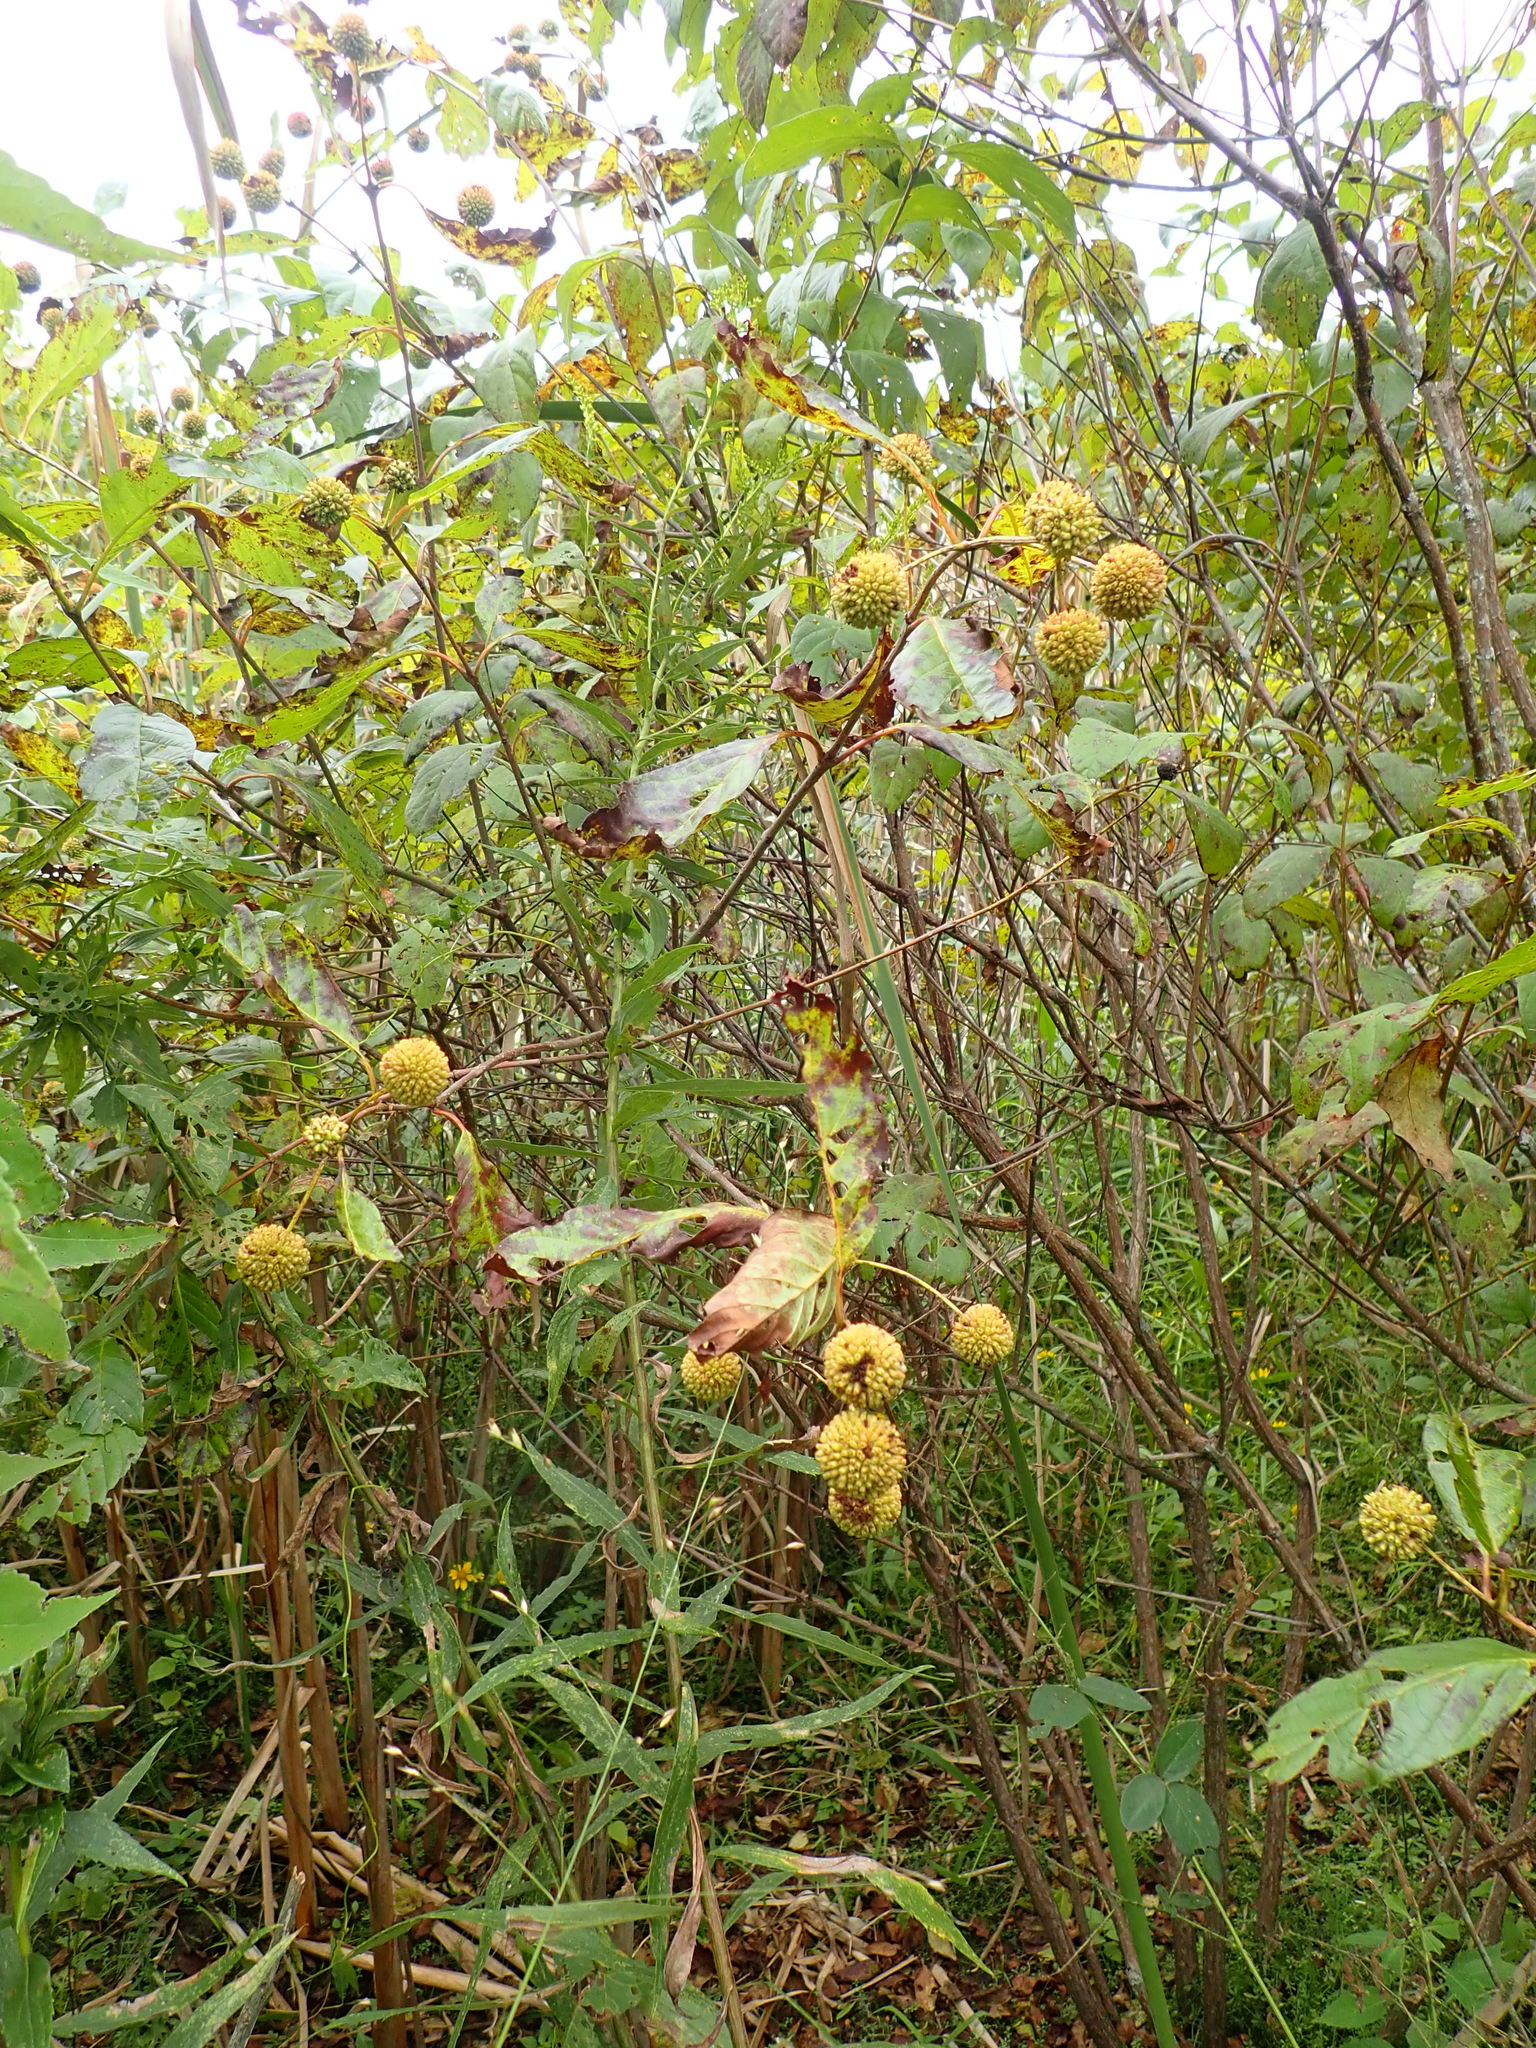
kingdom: Plantae
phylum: Tracheophyta
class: Magnoliopsida
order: Gentianales
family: Rubiaceae
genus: Cephalanthus
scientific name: Cephalanthus occidentalis
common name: Button-willow
